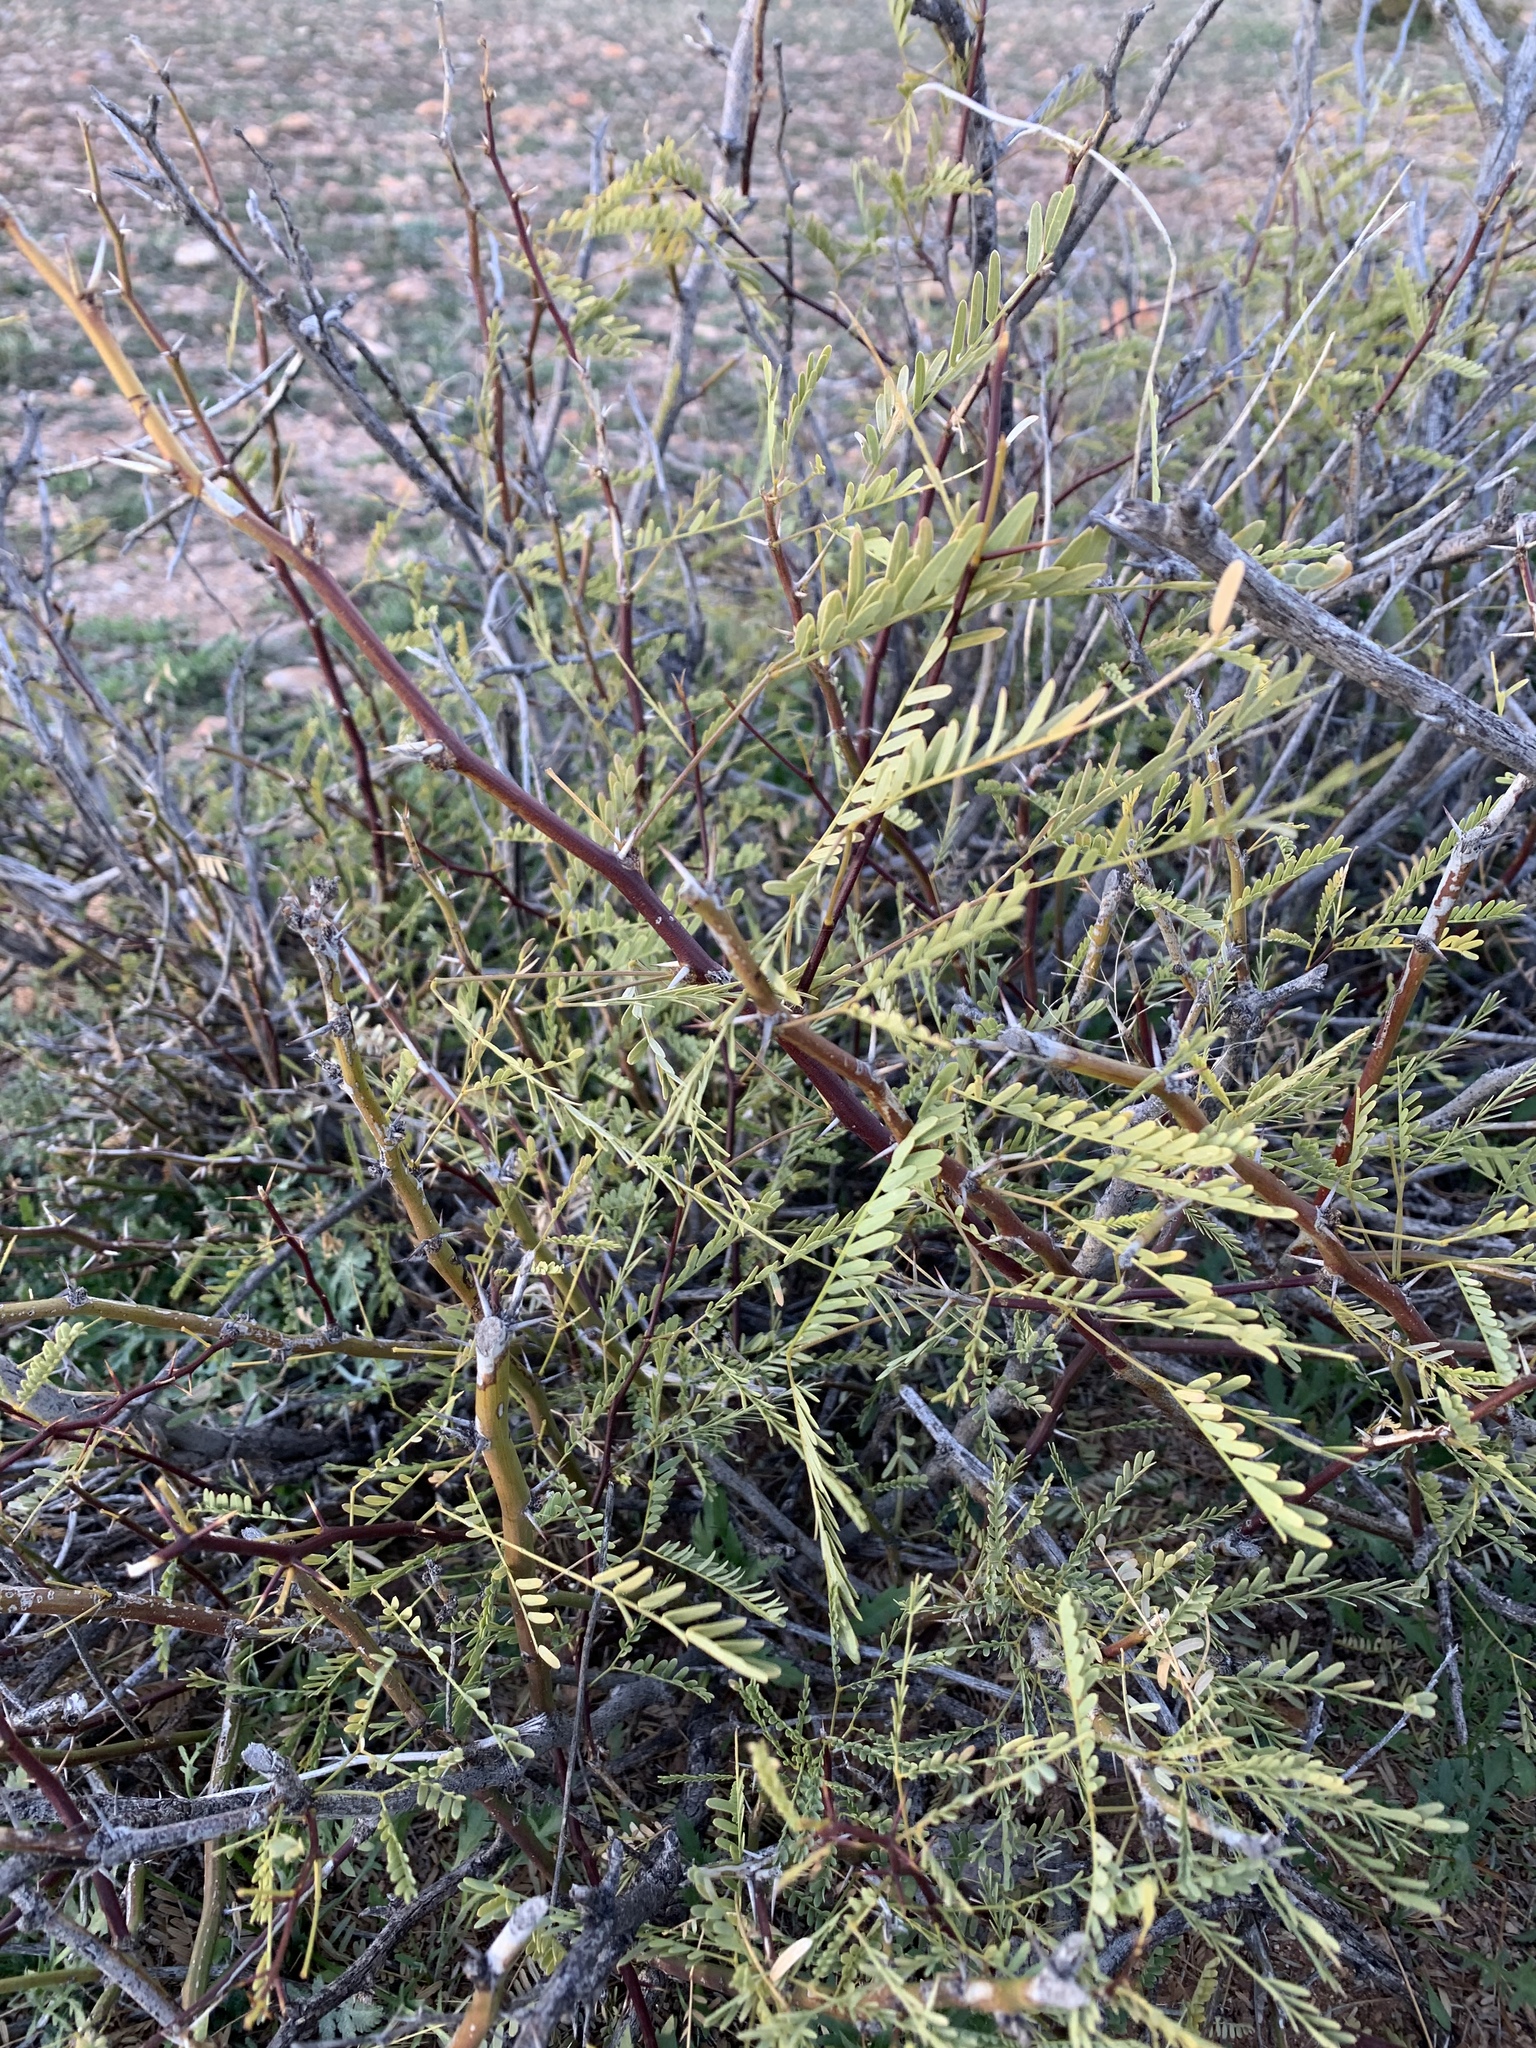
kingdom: Plantae
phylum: Tracheophyta
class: Magnoliopsida
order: Fabales
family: Fabaceae
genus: Prosopis
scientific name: Prosopis glandulosa
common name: Honey mesquite
